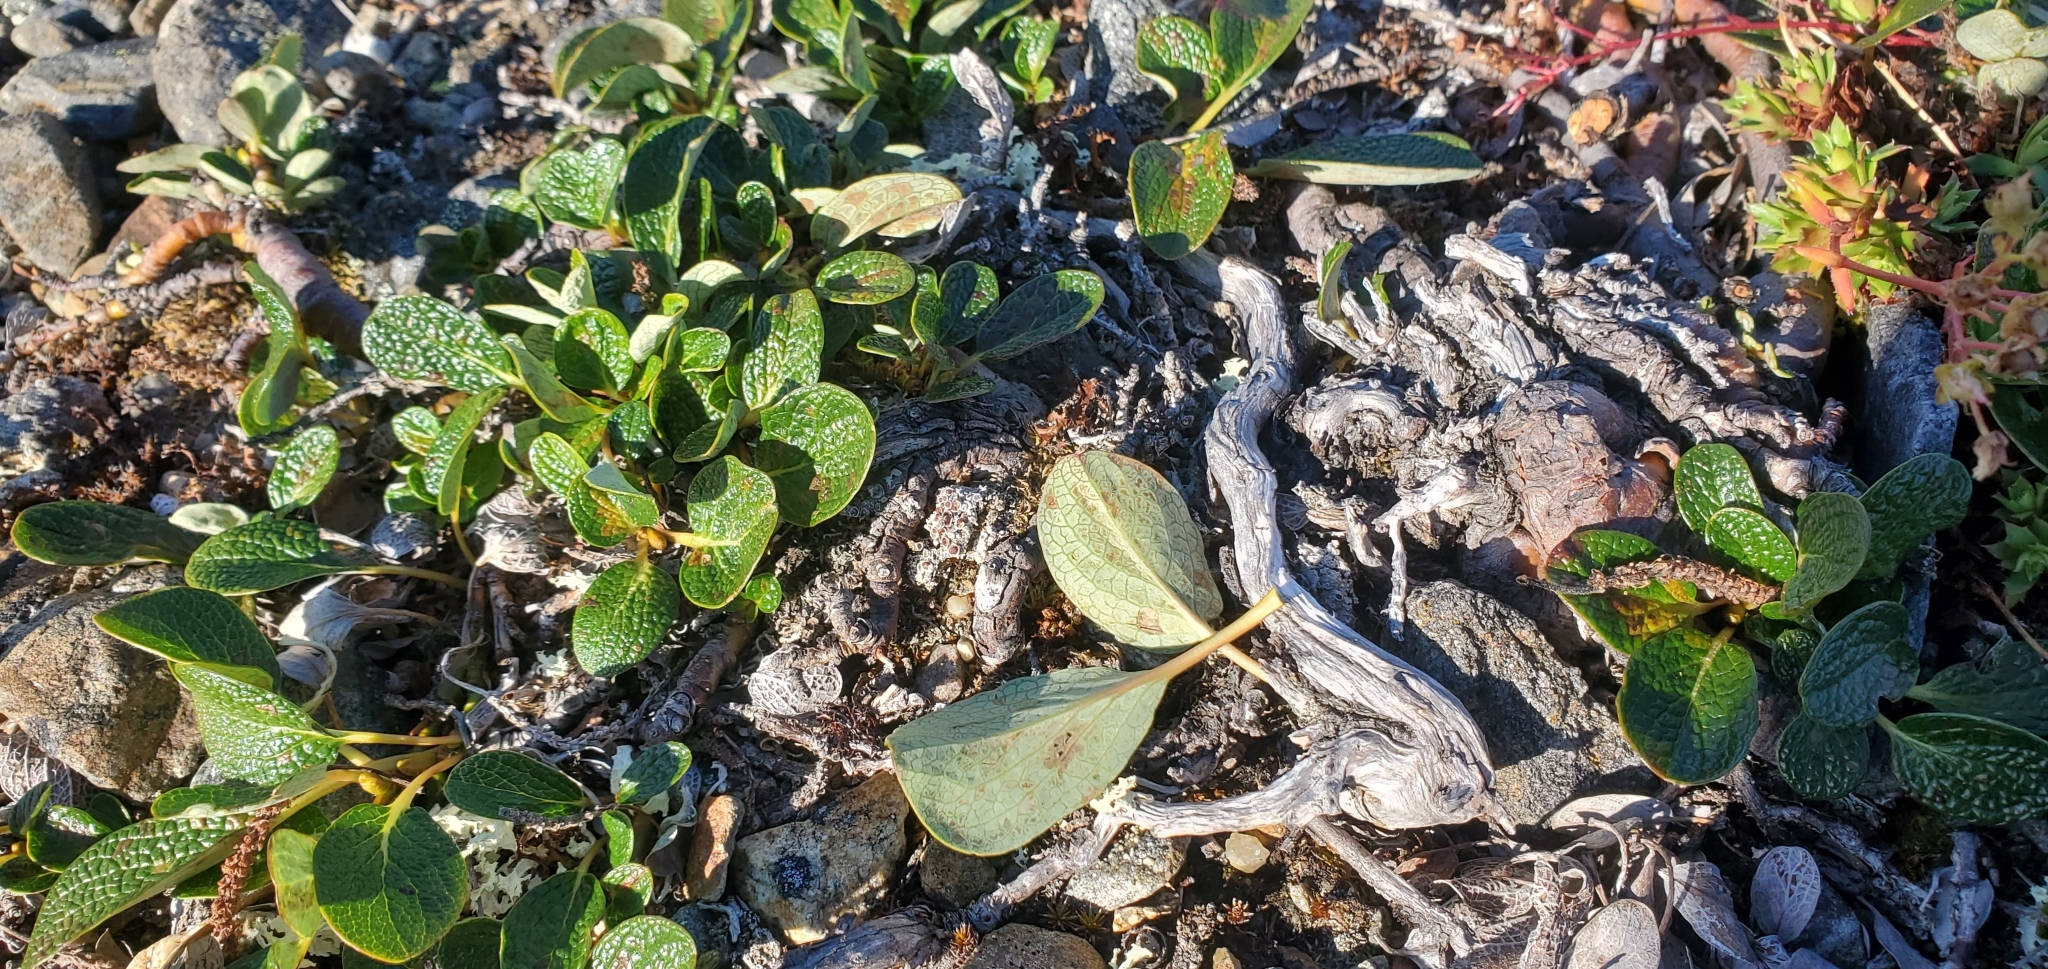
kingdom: Plantae
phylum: Tracheophyta
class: Magnoliopsida
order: Malpighiales
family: Salicaceae
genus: Salix
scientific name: Salix reticulata
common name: Net-leaved willow
